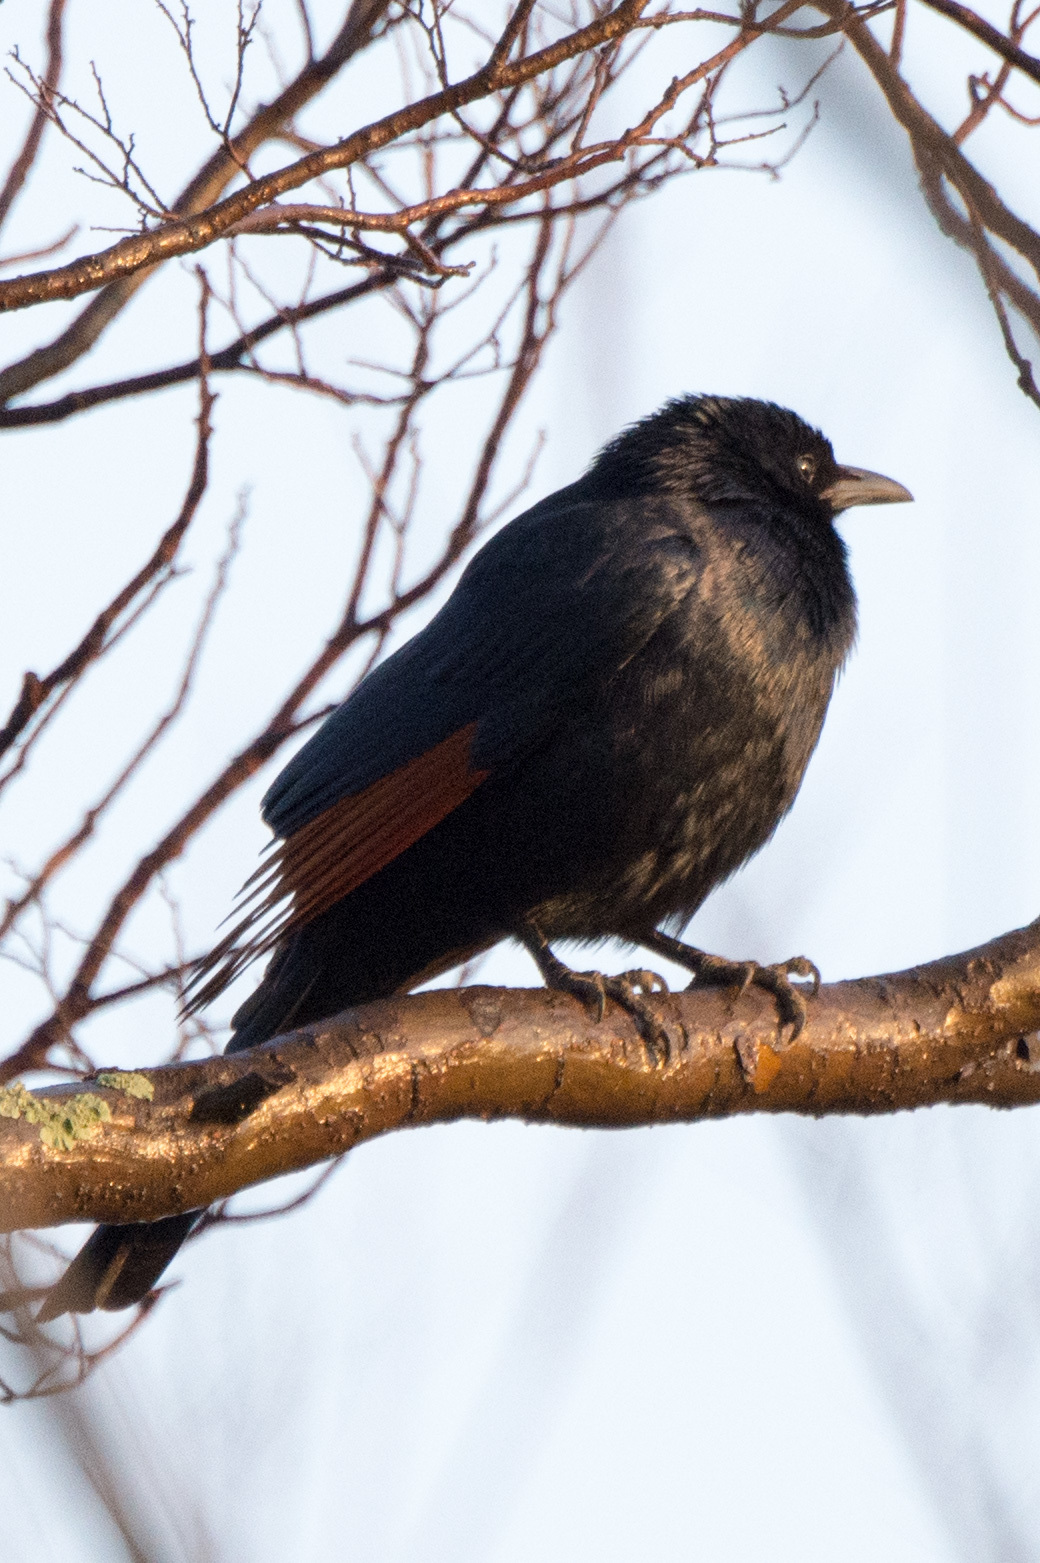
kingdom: Animalia
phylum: Chordata
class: Aves
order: Passeriformes
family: Sturnidae
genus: Onychognathus
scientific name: Onychognathus morio
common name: Red-winged starling
